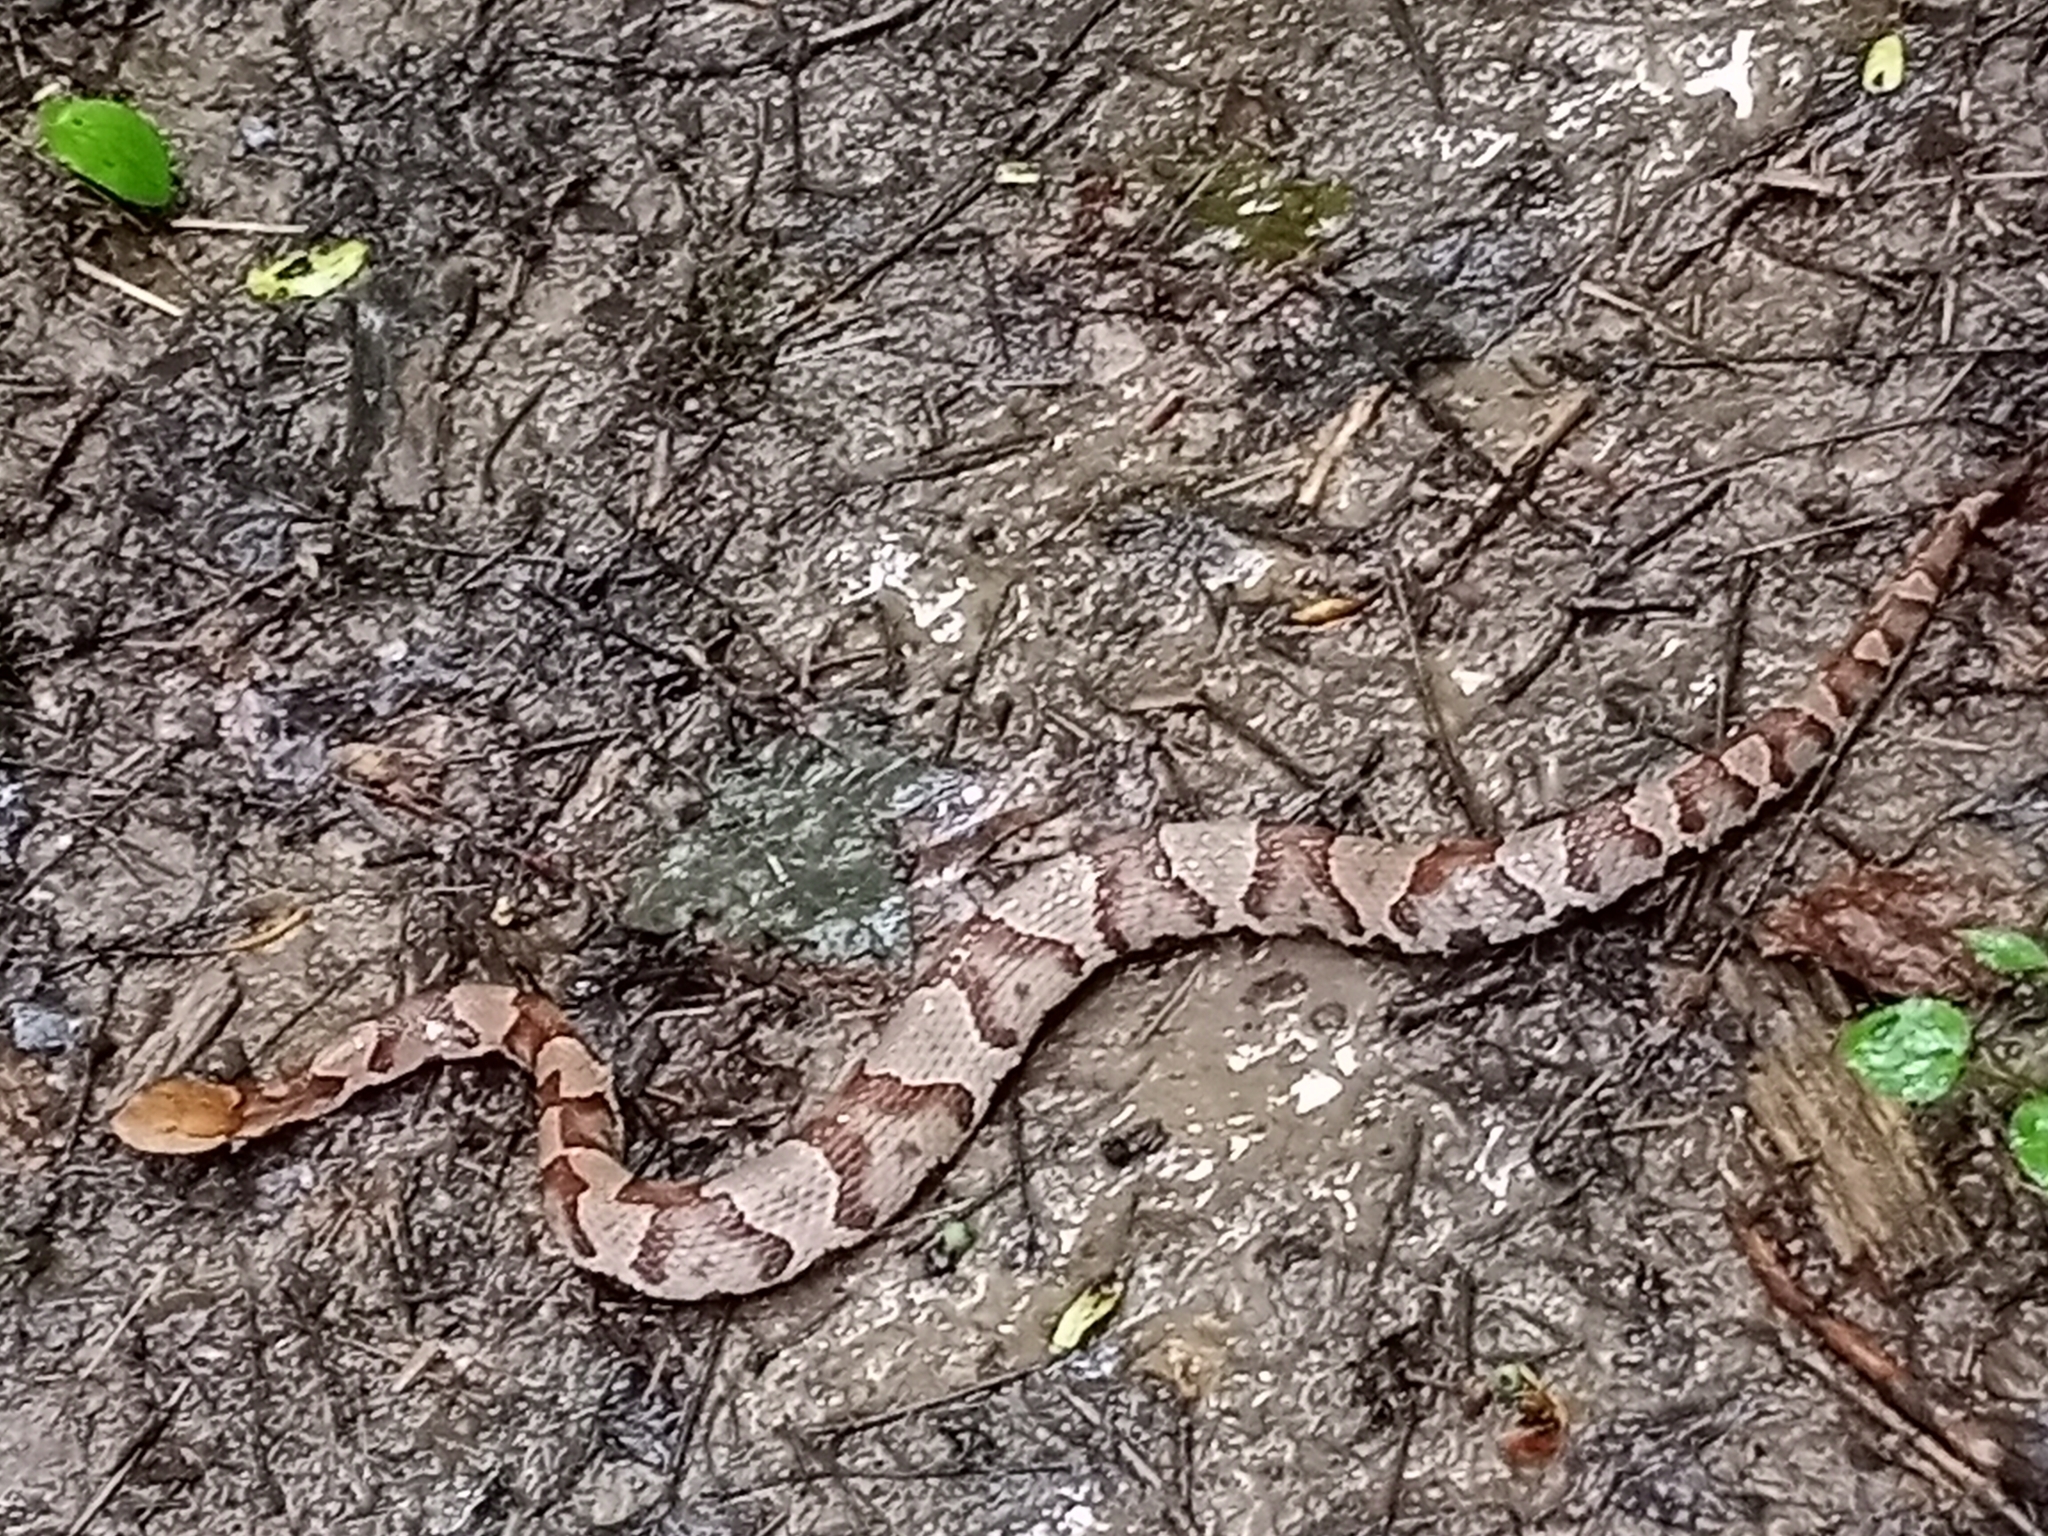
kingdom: Animalia
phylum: Chordata
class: Squamata
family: Viperidae
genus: Agkistrodon
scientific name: Agkistrodon contortrix
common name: Northern copperhead
